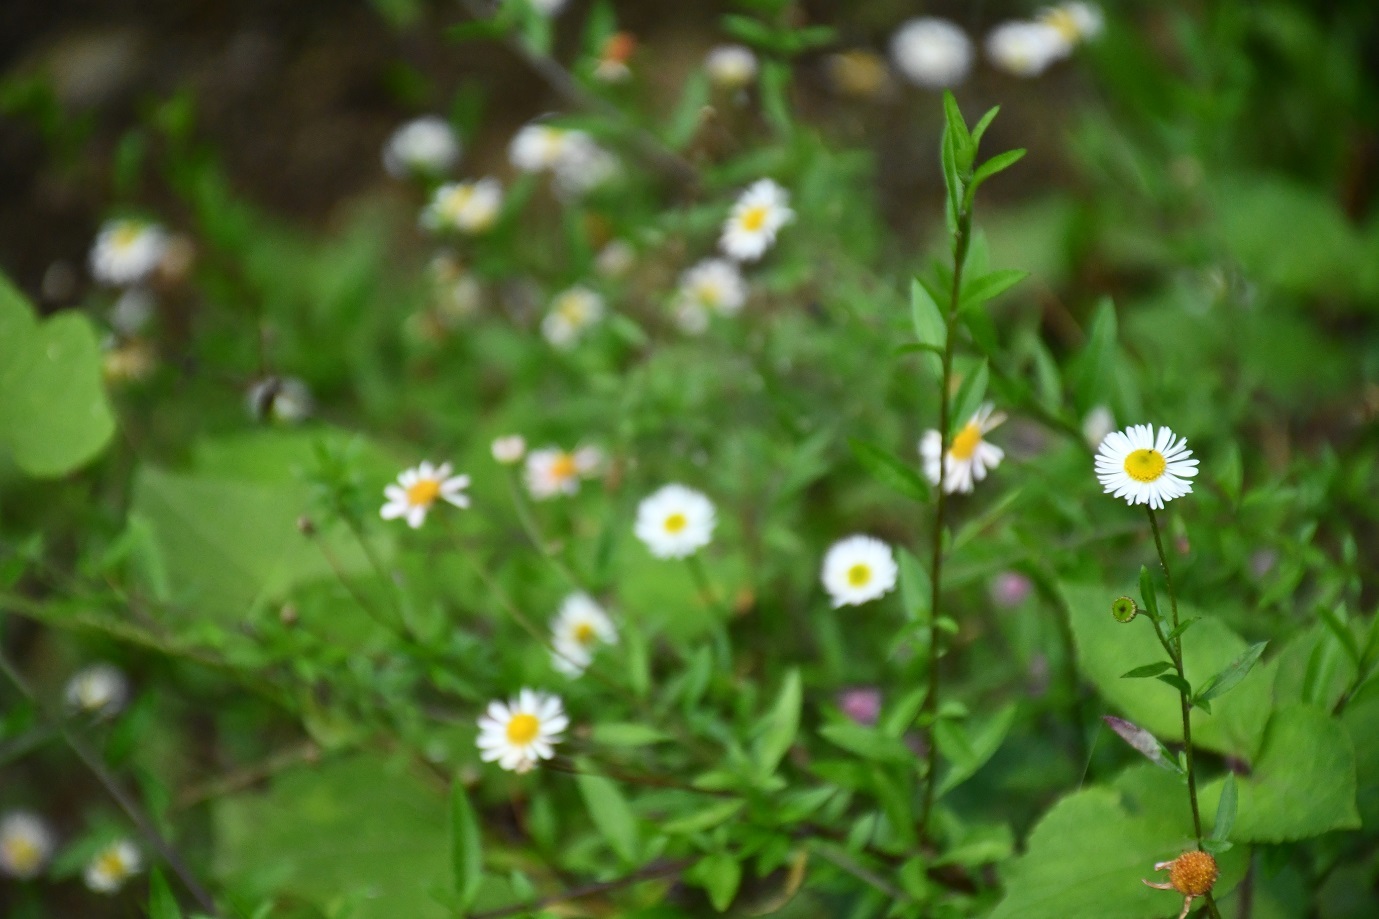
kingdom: Plantae
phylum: Tracheophyta
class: Magnoliopsida
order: Asterales
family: Asteraceae
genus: Erigeron
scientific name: Erigeron karvinskianus
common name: Mexican fleabane
